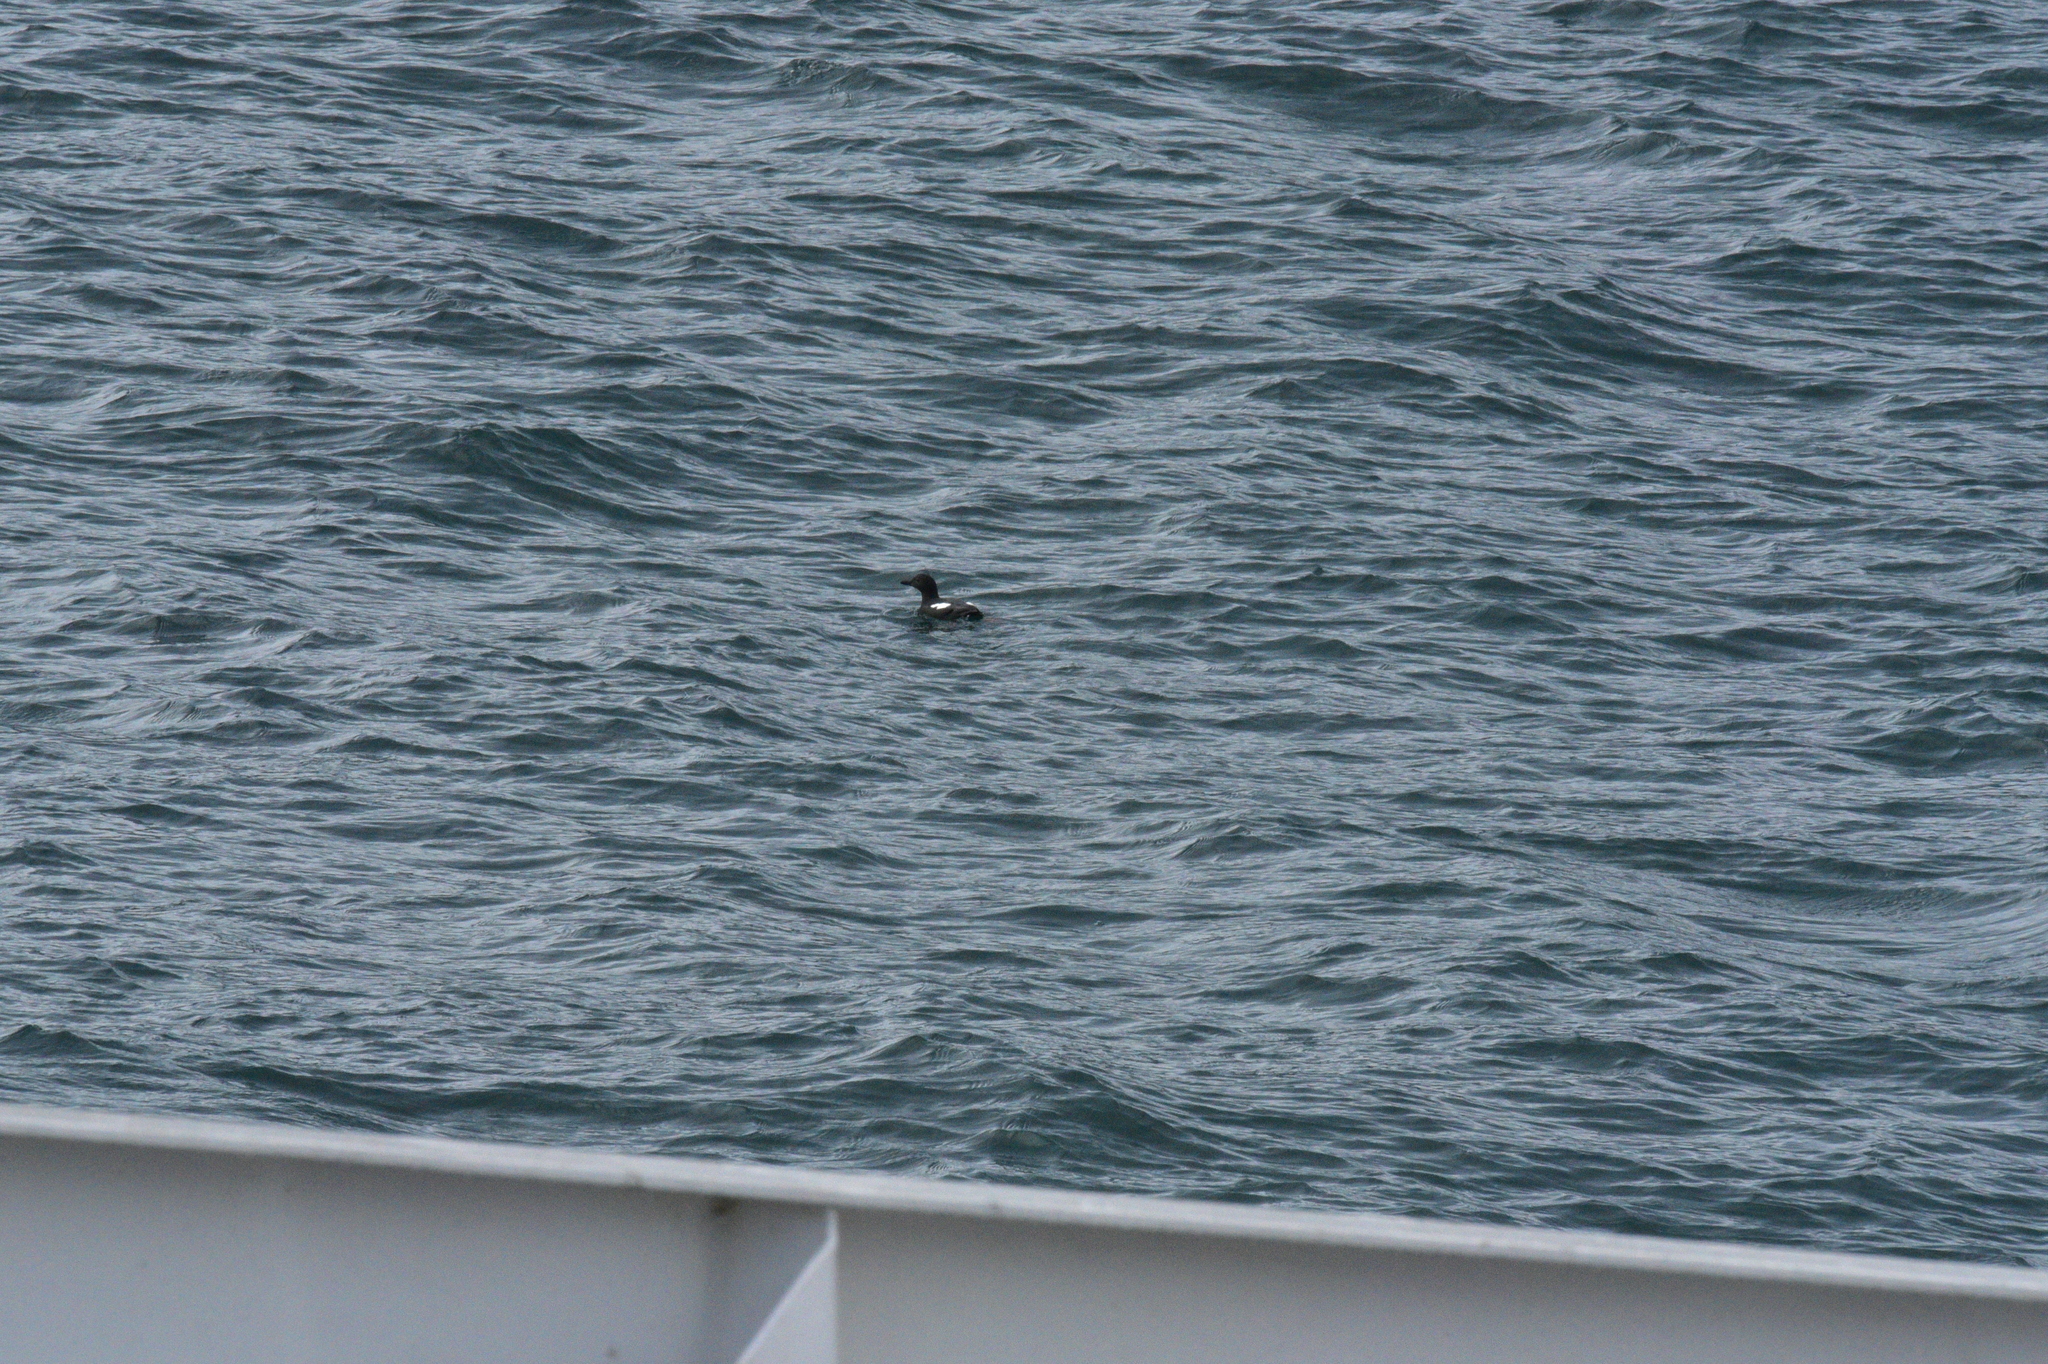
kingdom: Animalia
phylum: Chordata
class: Aves
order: Charadriiformes
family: Alcidae
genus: Cepphus
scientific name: Cepphus columba
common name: Pigeon guillemot
